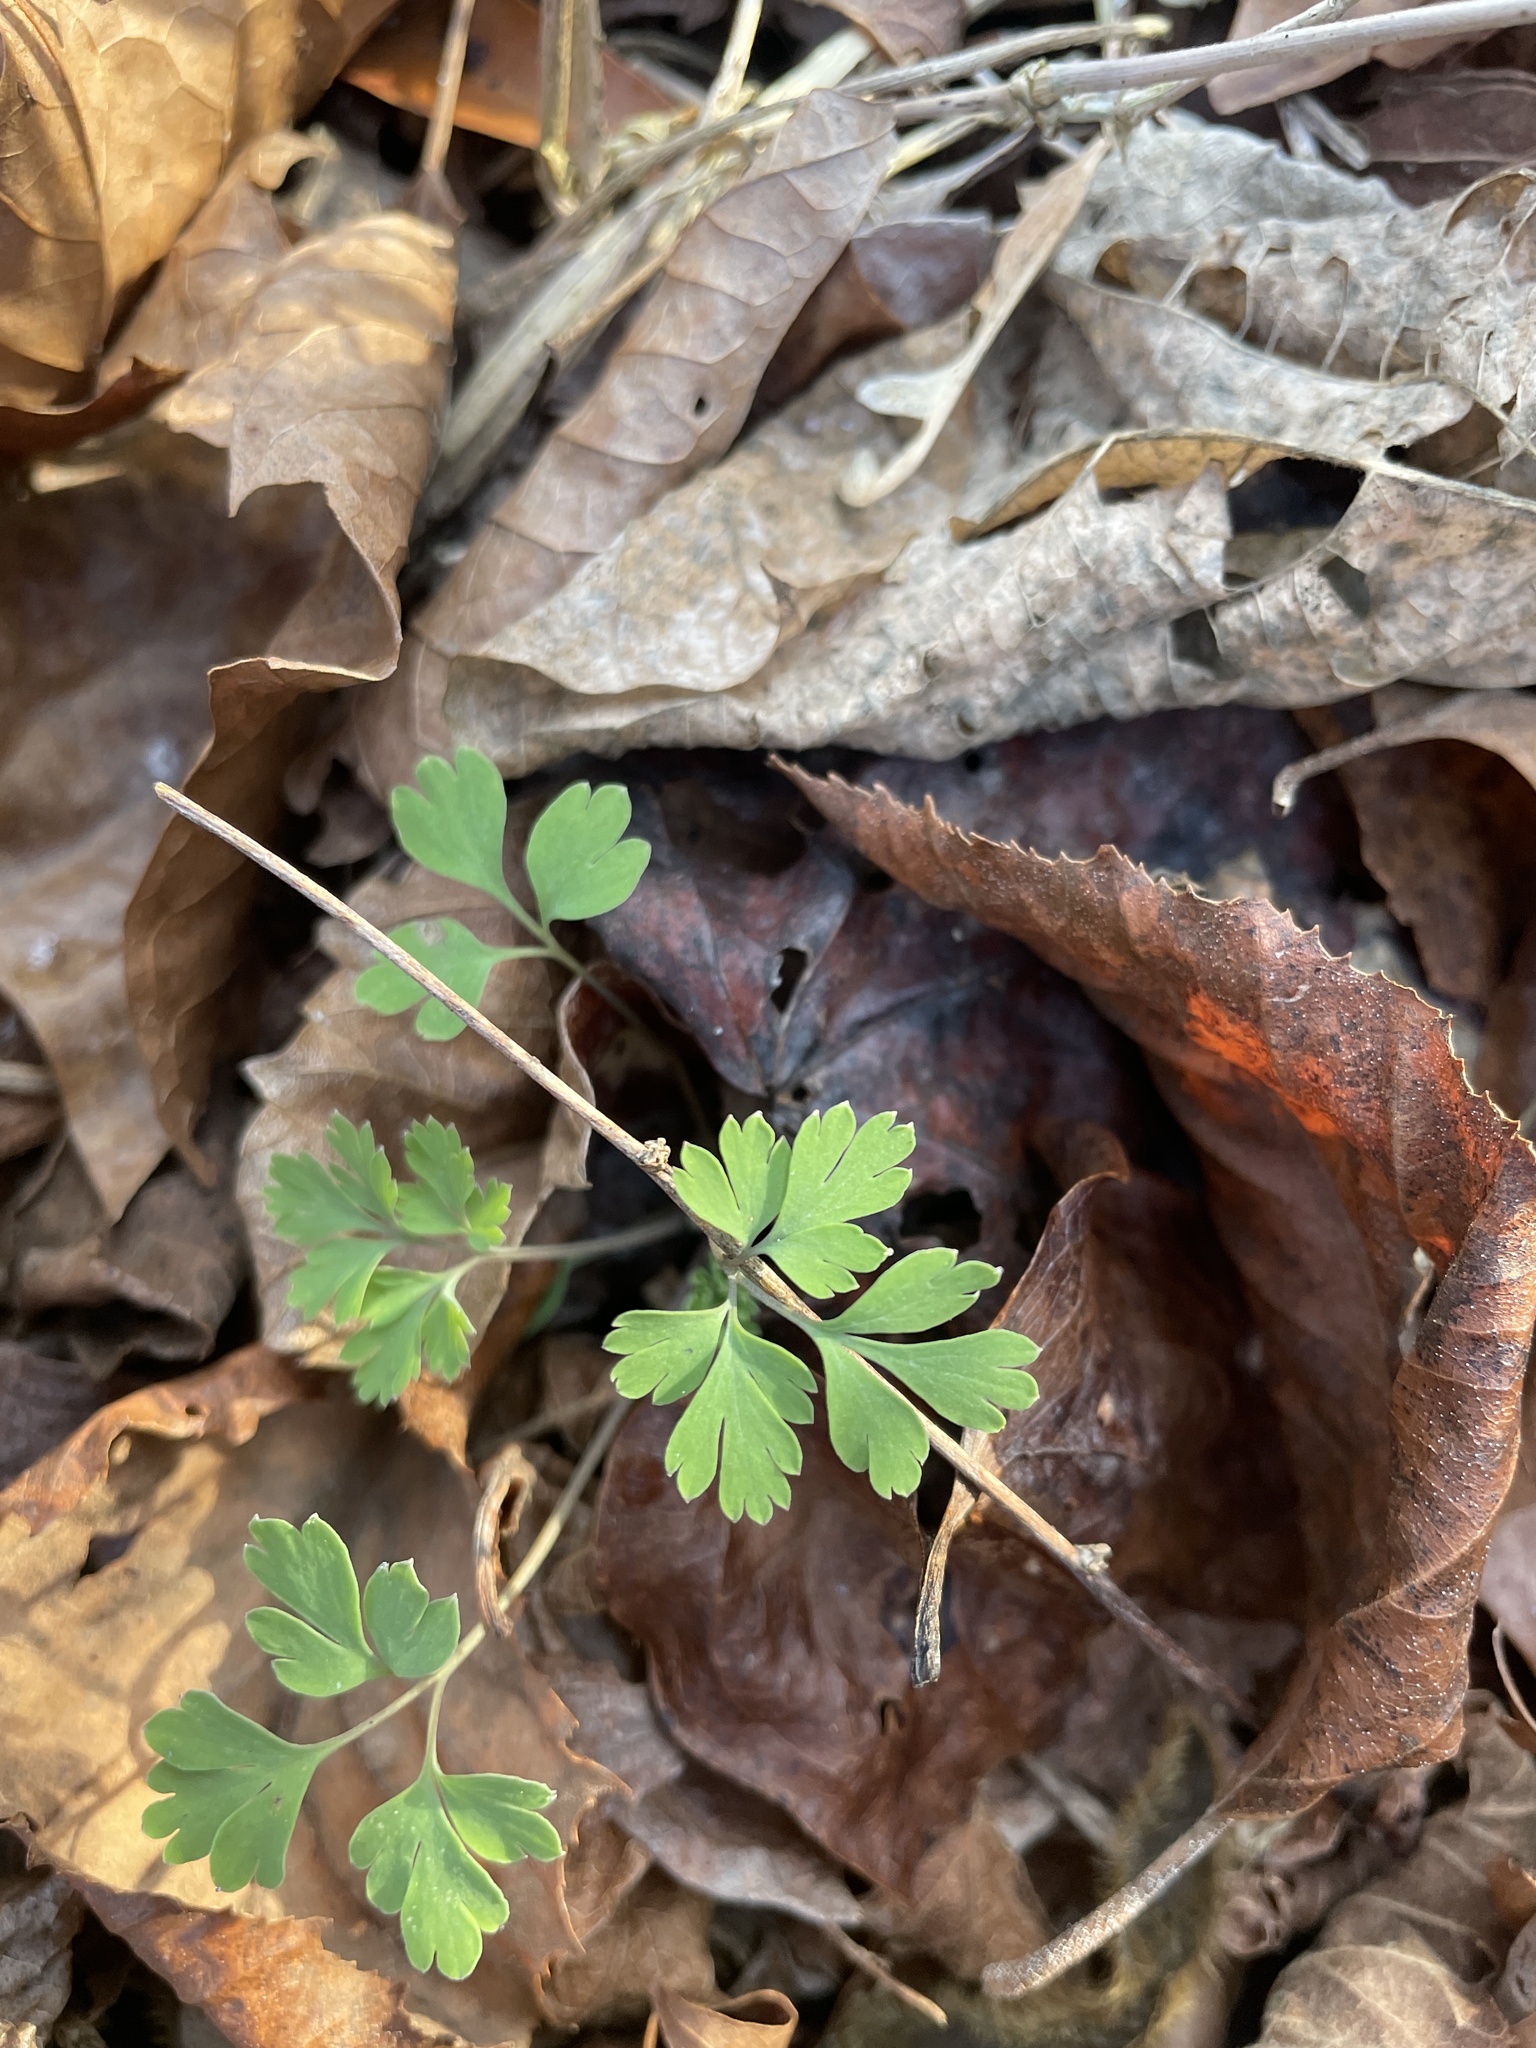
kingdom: Plantae
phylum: Tracheophyta
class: Magnoliopsida
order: Ranunculales
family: Papaveraceae
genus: Corydalis
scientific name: Corydalis flavula
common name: Yellow corydalis
